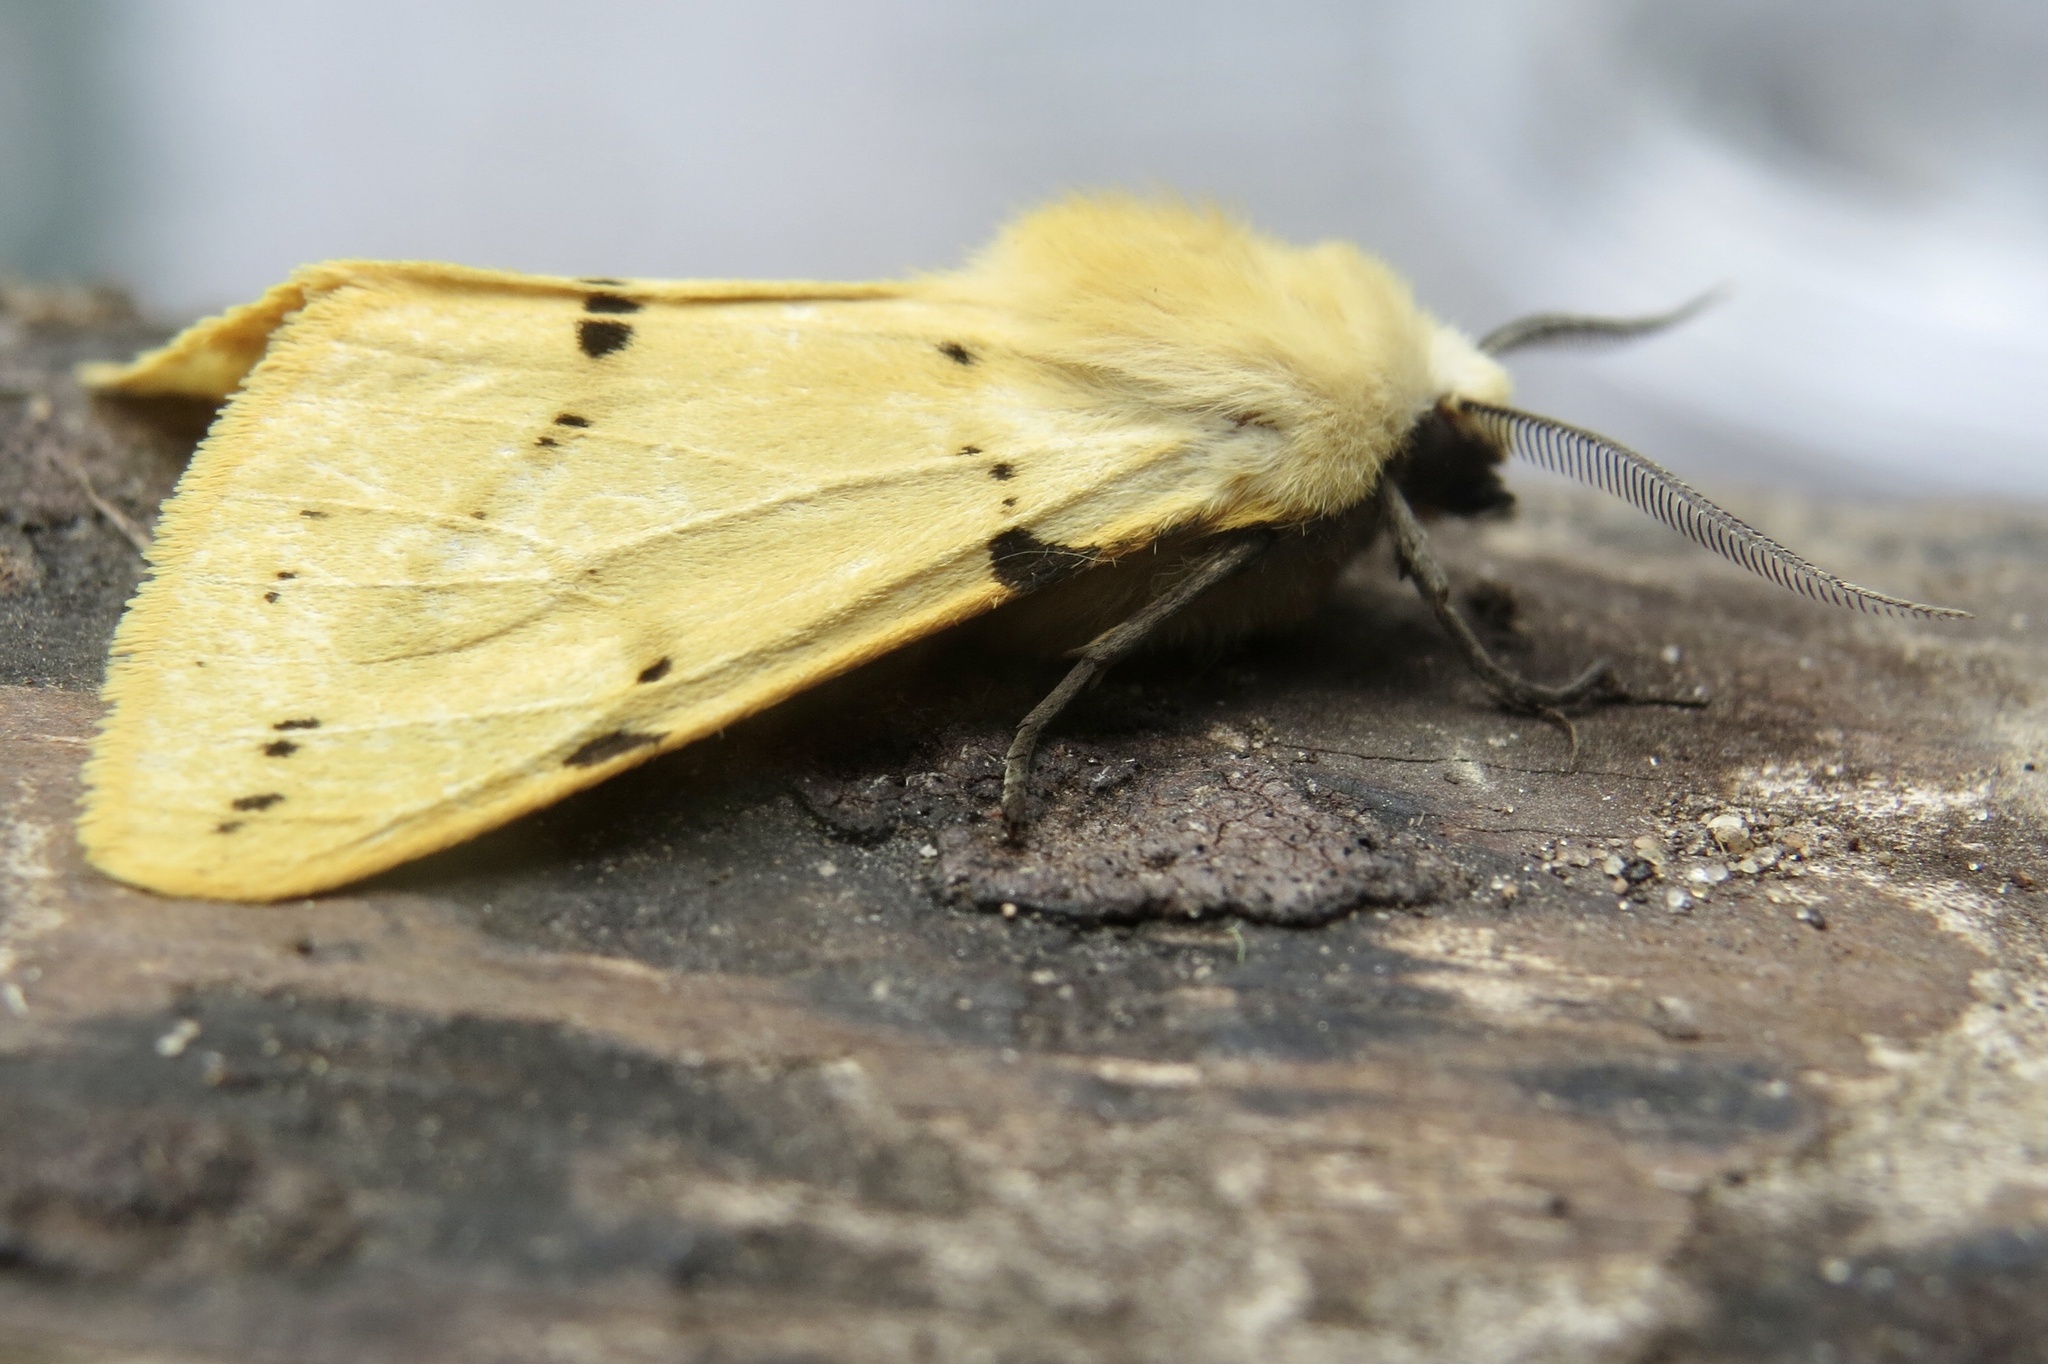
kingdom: Animalia
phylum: Arthropoda
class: Insecta
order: Lepidoptera
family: Erebidae
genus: Spilarctia
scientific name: Spilarctia lutea
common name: Buff ermine
